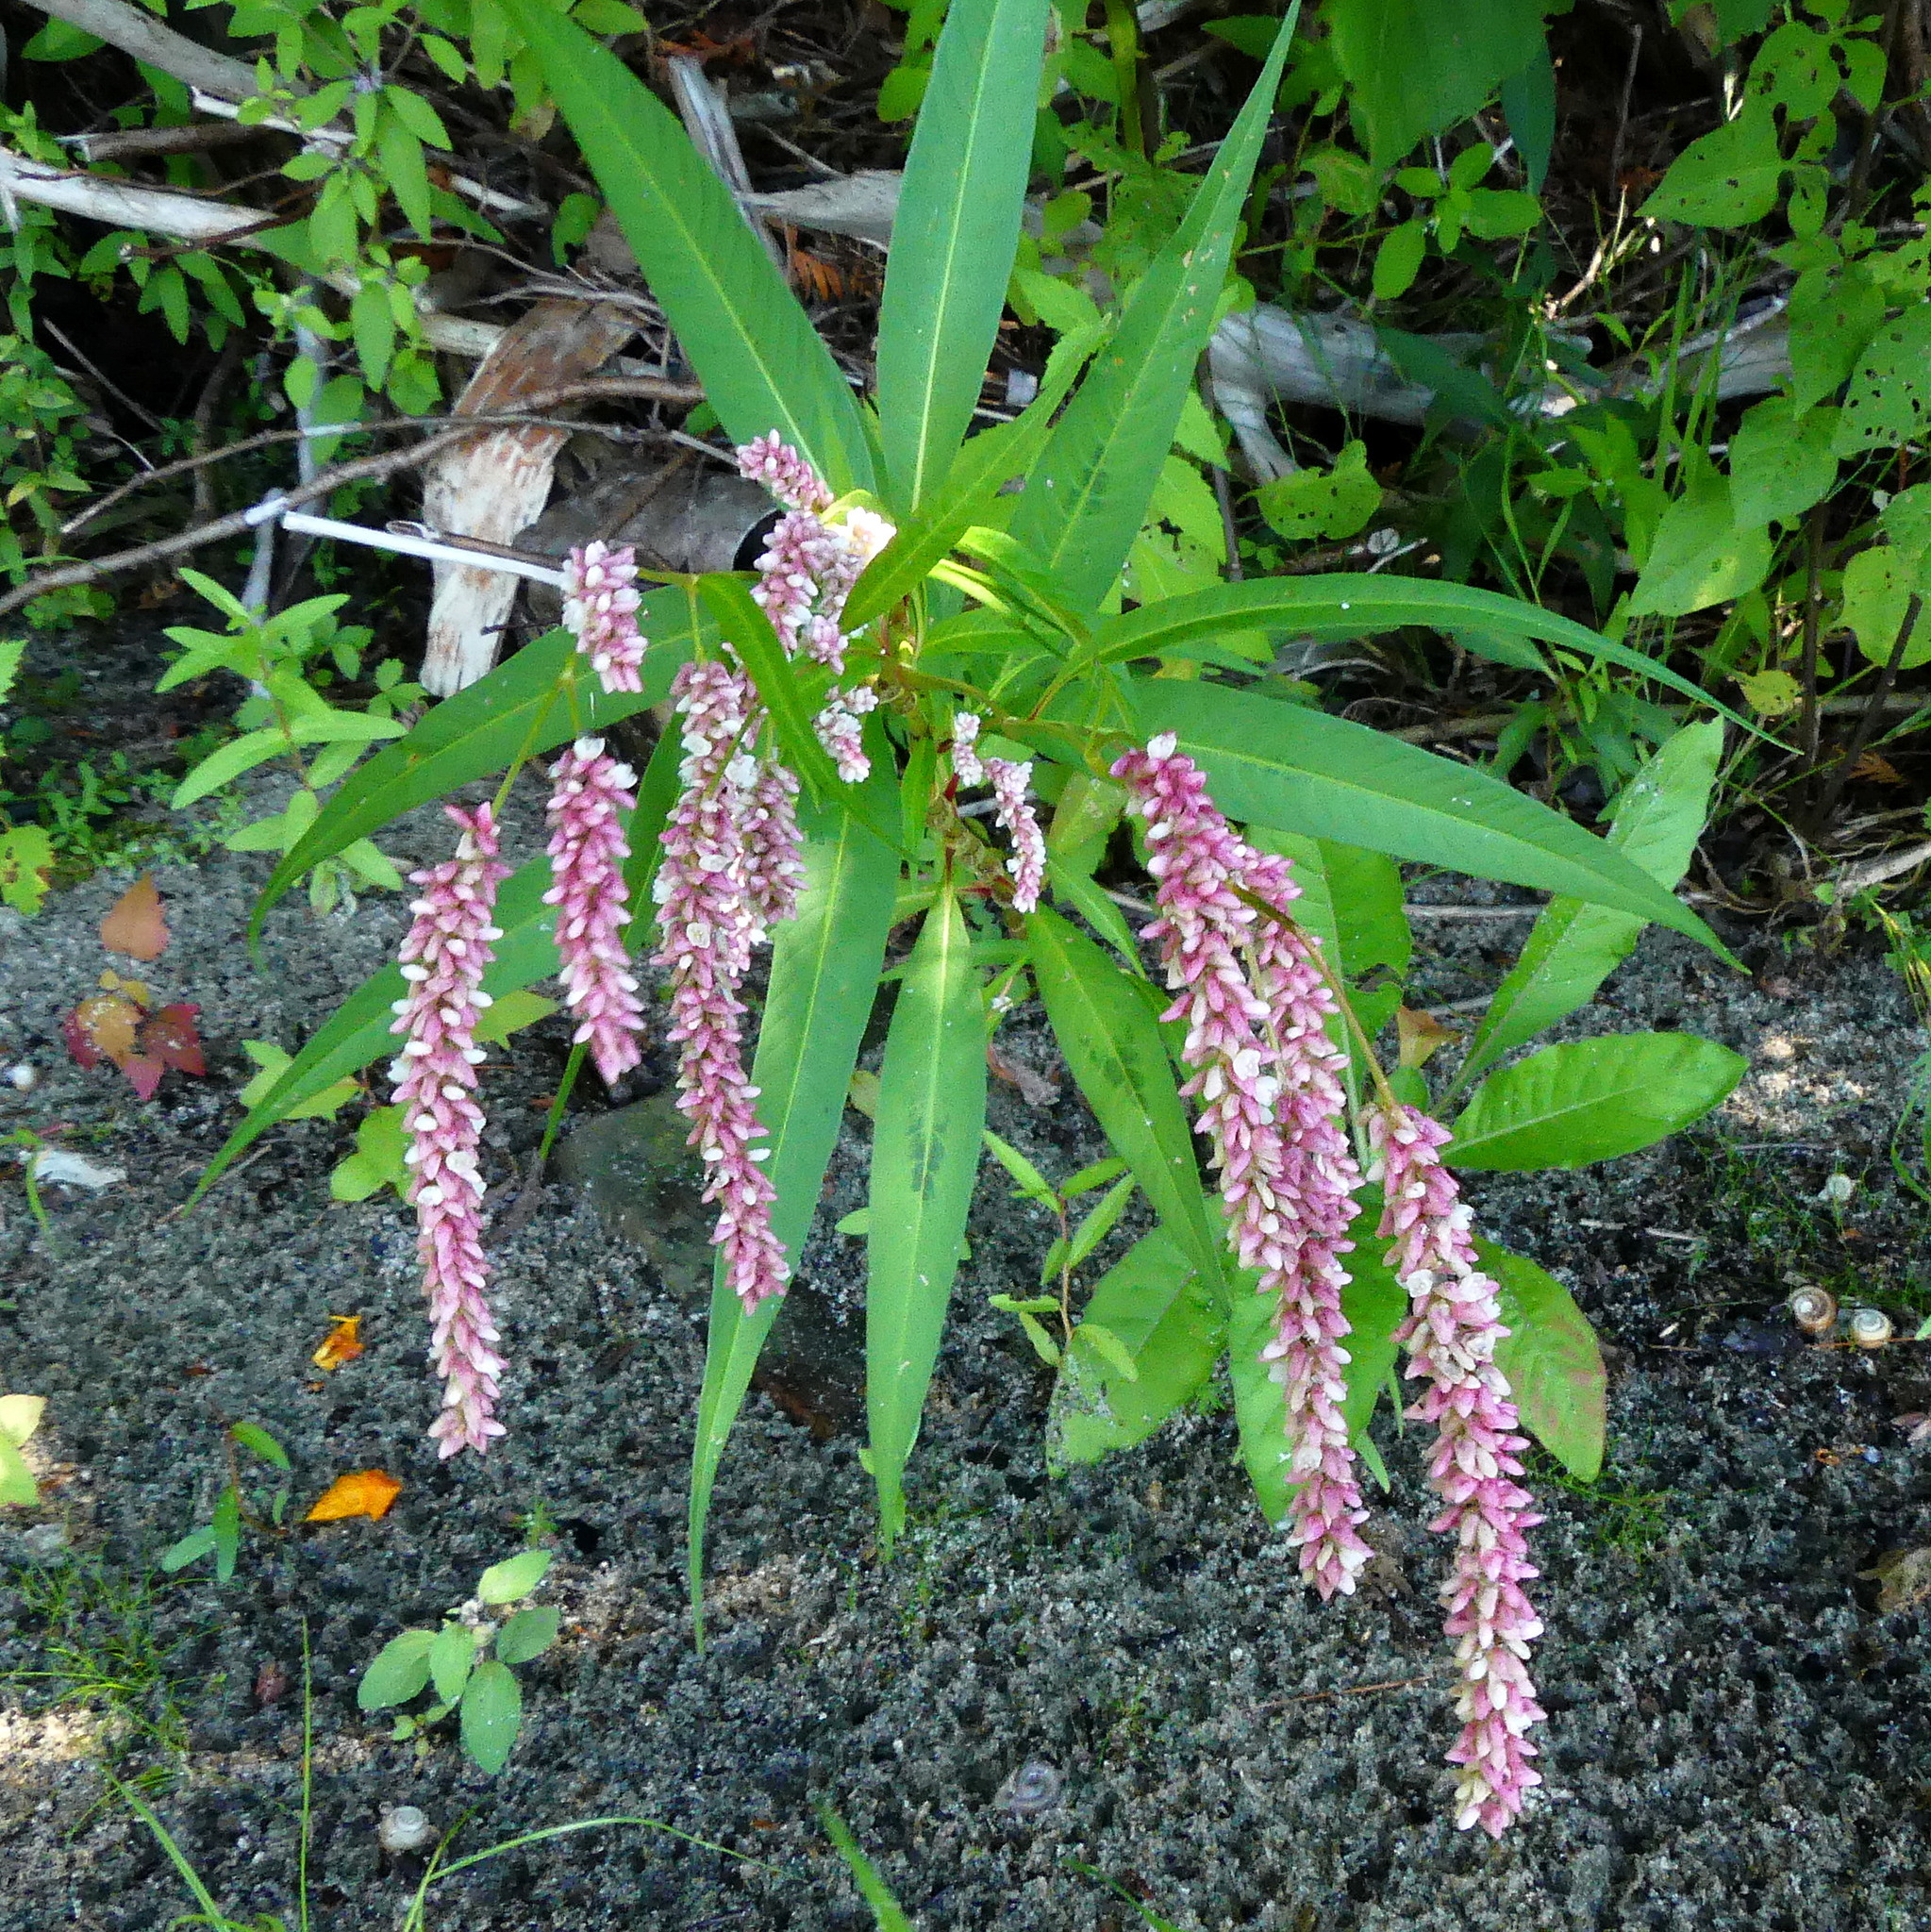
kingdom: Plantae
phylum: Tracheophyta
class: Magnoliopsida
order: Caryophyllales
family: Polygonaceae
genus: Persicaria
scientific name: Persicaria maculosa
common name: Redshank
